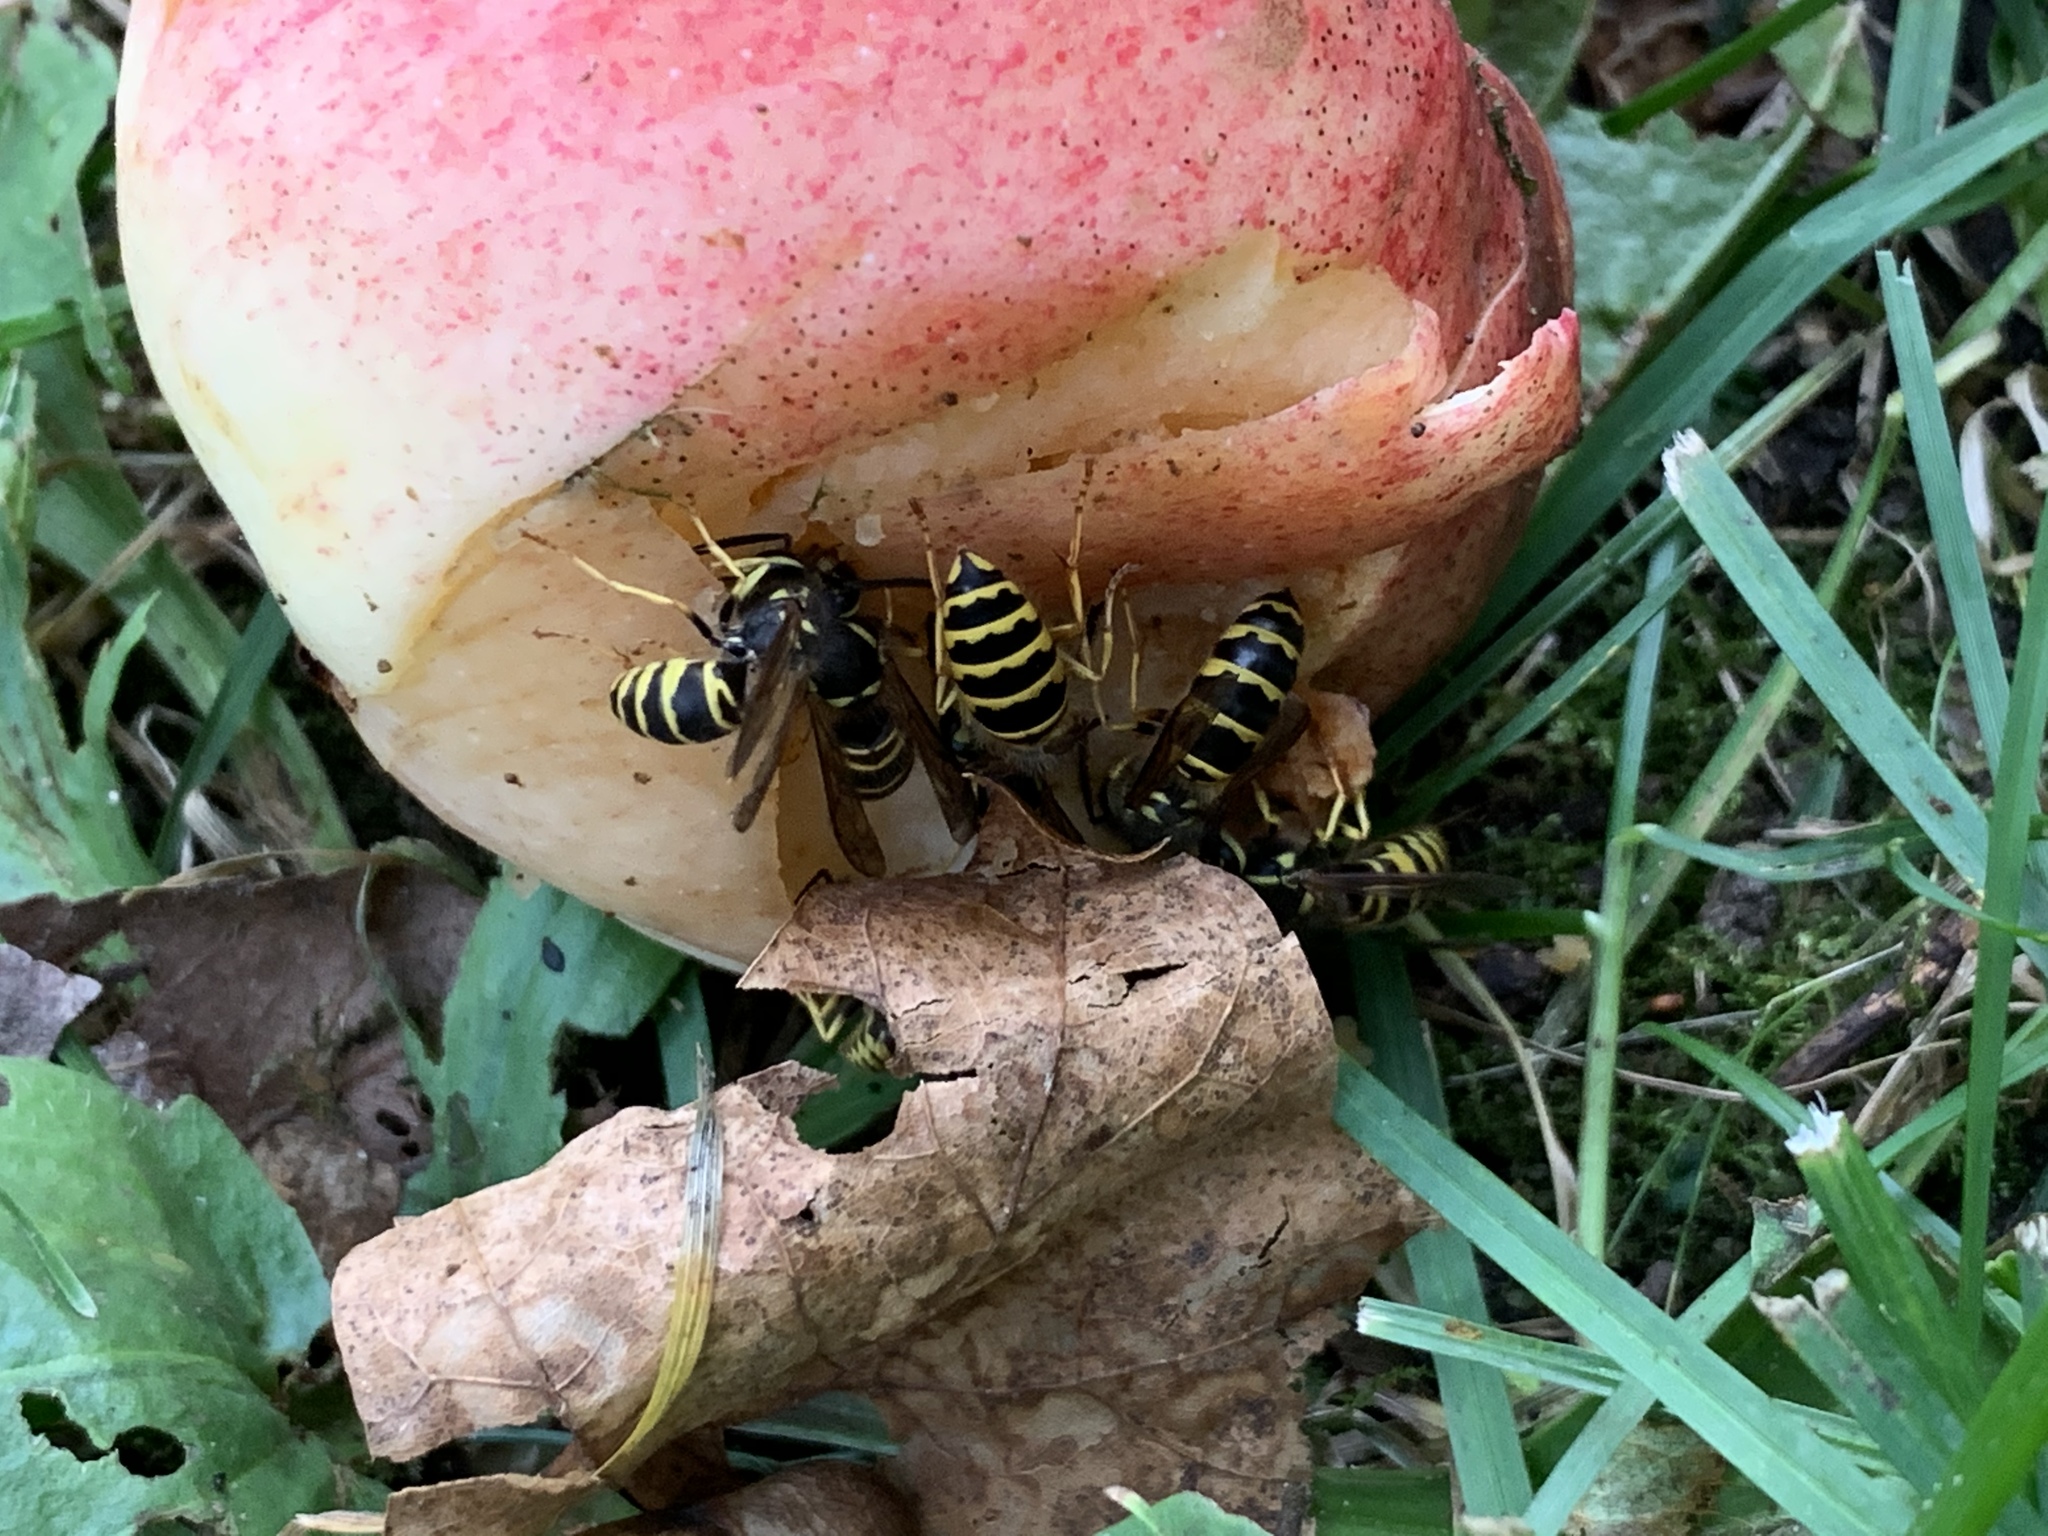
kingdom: Animalia
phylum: Arthropoda
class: Insecta
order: Hymenoptera
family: Vespidae
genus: Vespula
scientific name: Vespula maculifrons
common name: Eastern yellowjacket
